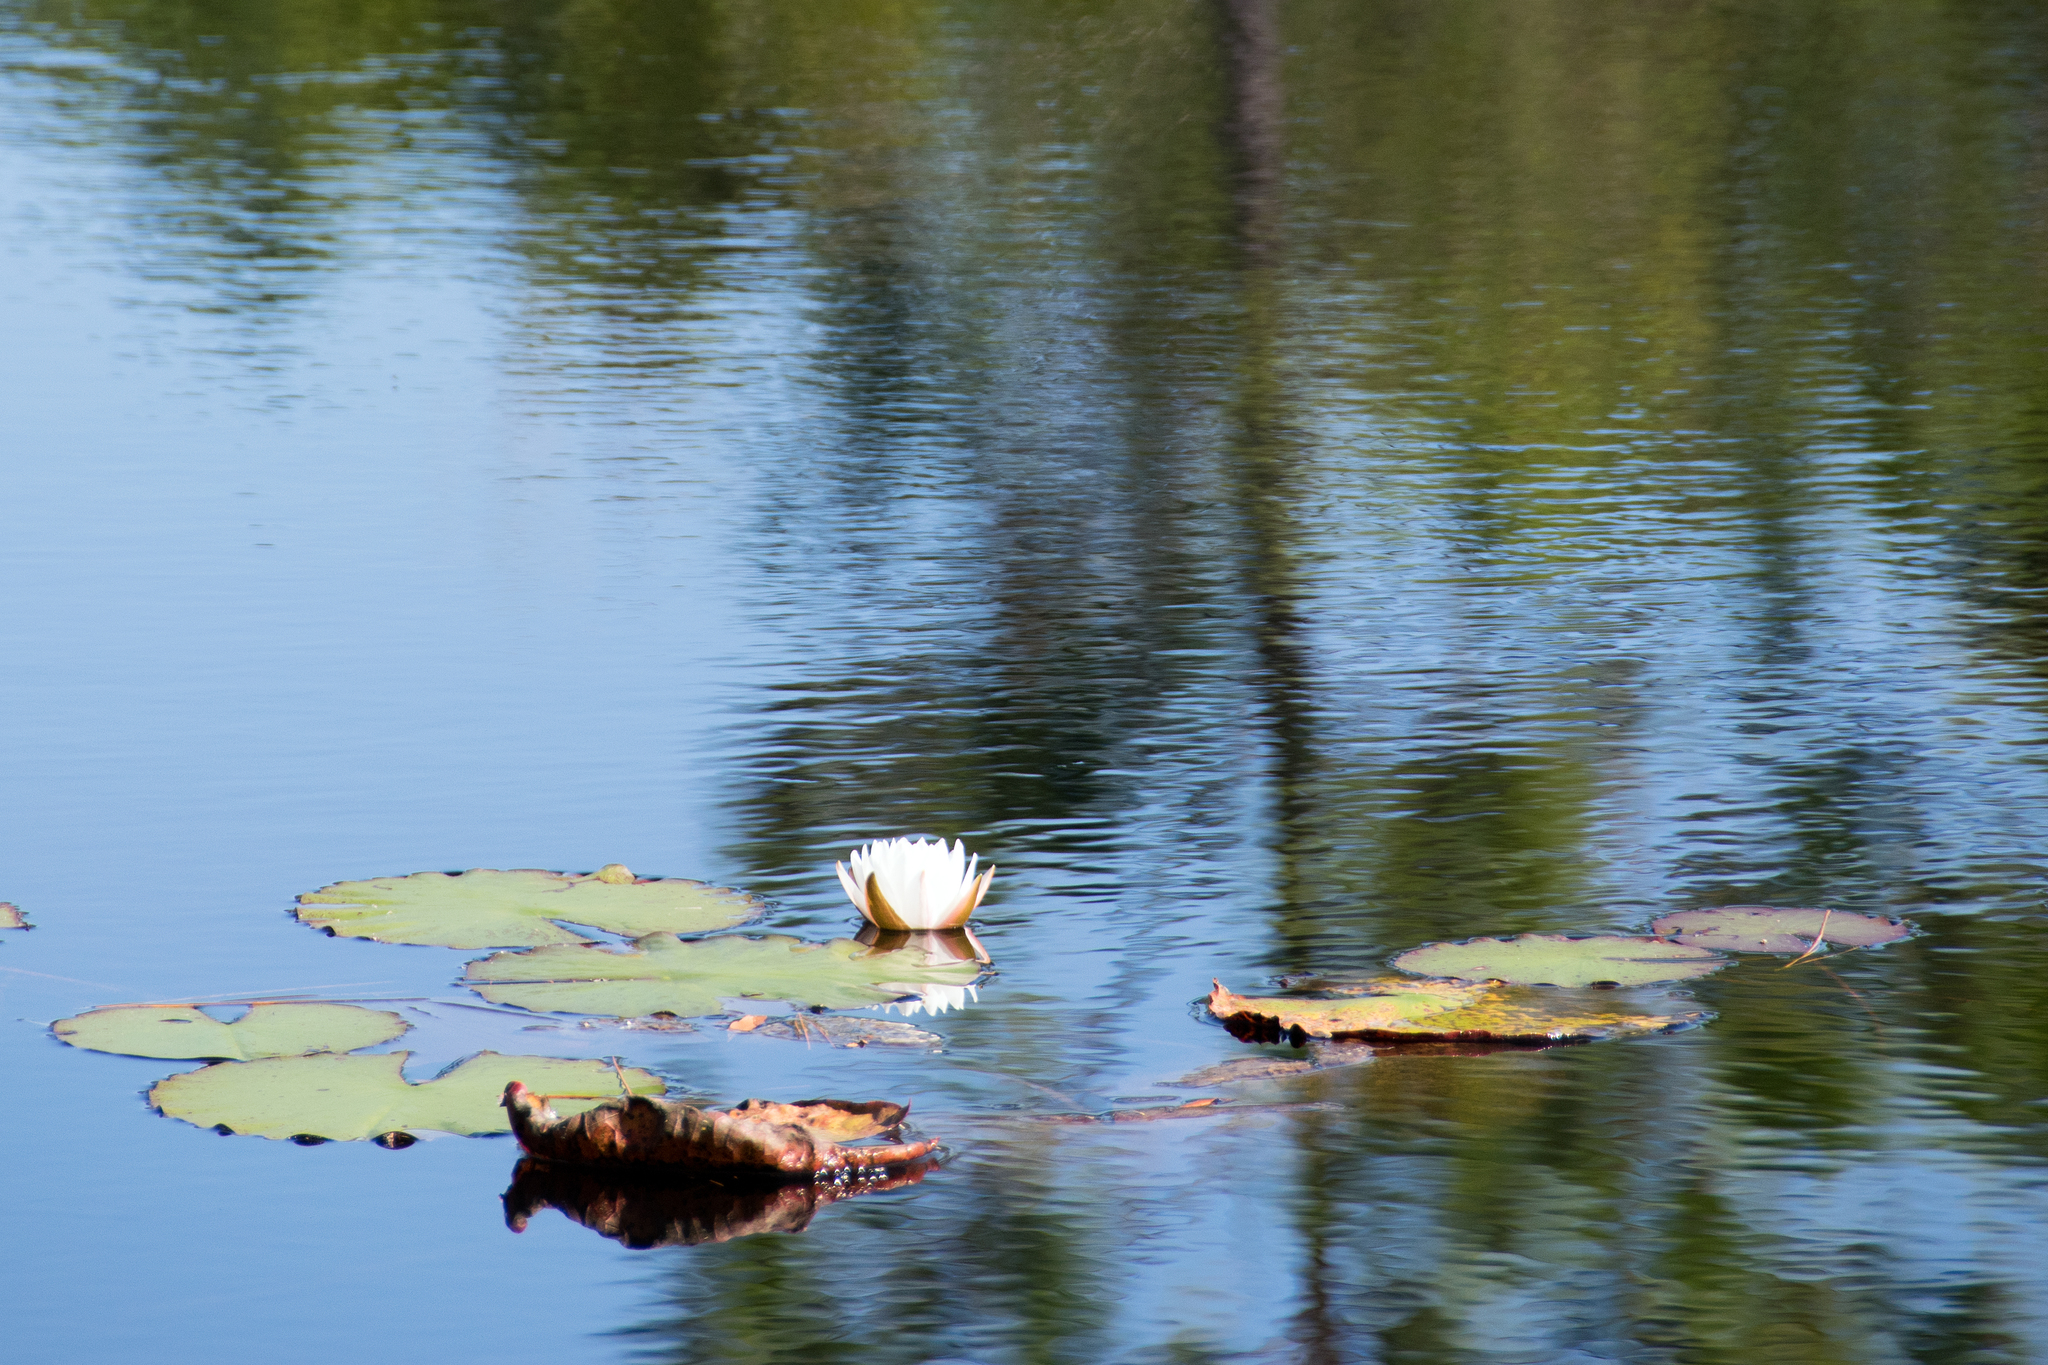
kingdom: Plantae
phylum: Tracheophyta
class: Magnoliopsida
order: Nymphaeales
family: Nymphaeaceae
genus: Nymphaea
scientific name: Nymphaea odorata
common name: Fragrant water-lily
